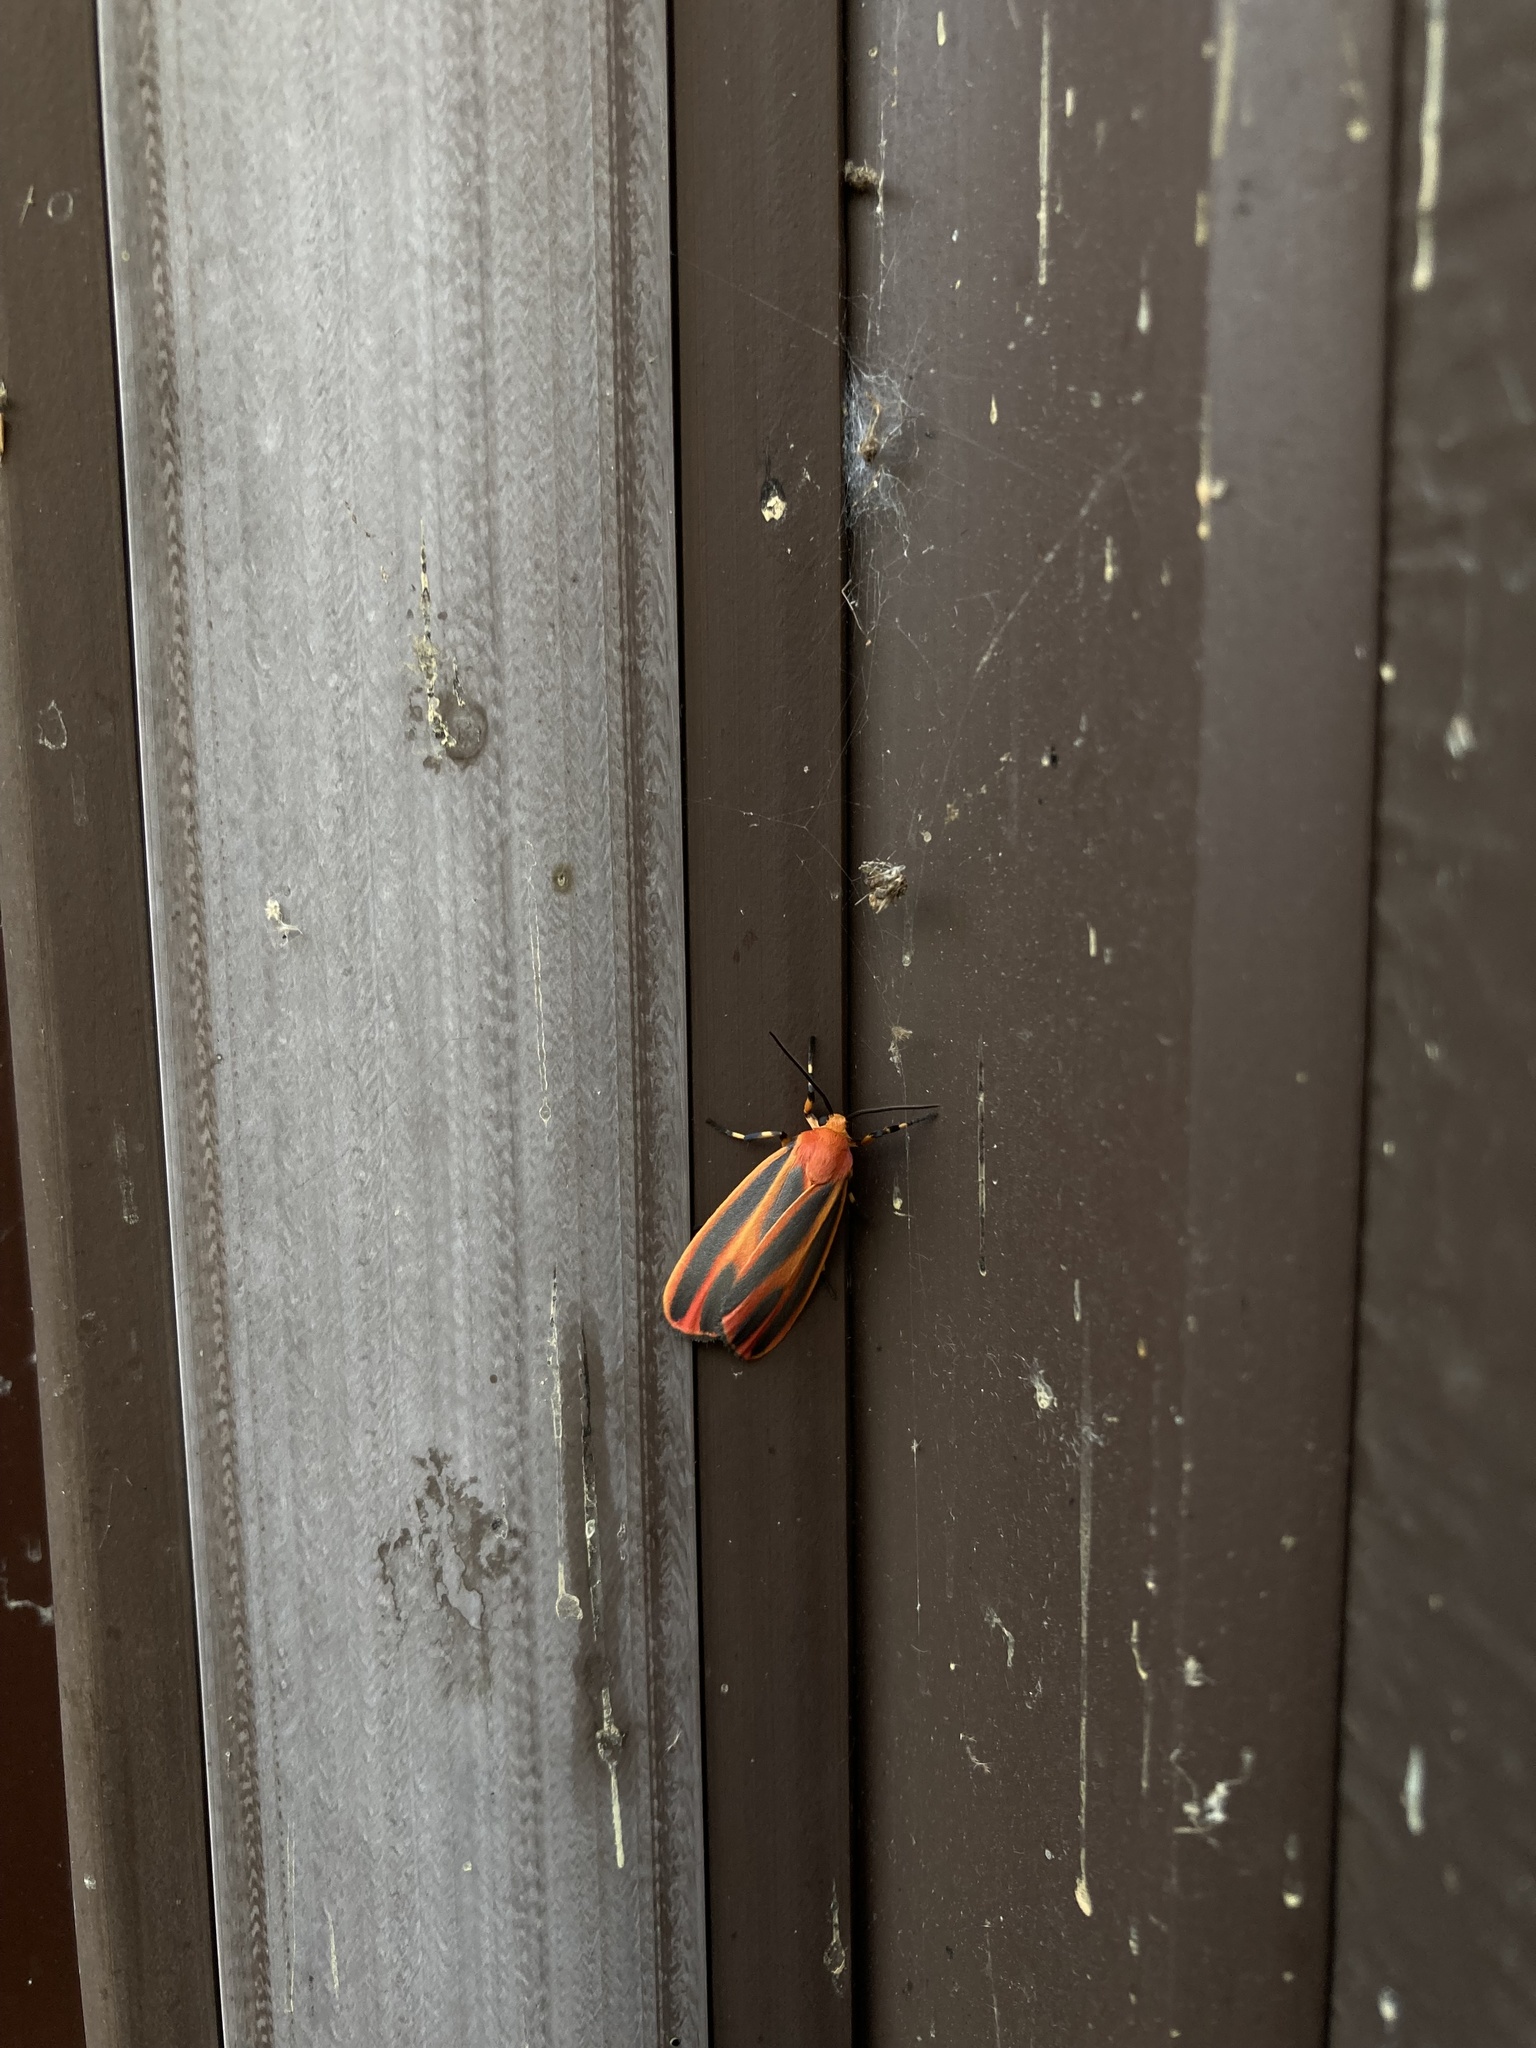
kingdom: Animalia
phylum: Arthropoda
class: Insecta
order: Lepidoptera
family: Erebidae
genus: Hypoprepia
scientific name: Hypoprepia miniata
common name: Scarlet-winged lichen moth
